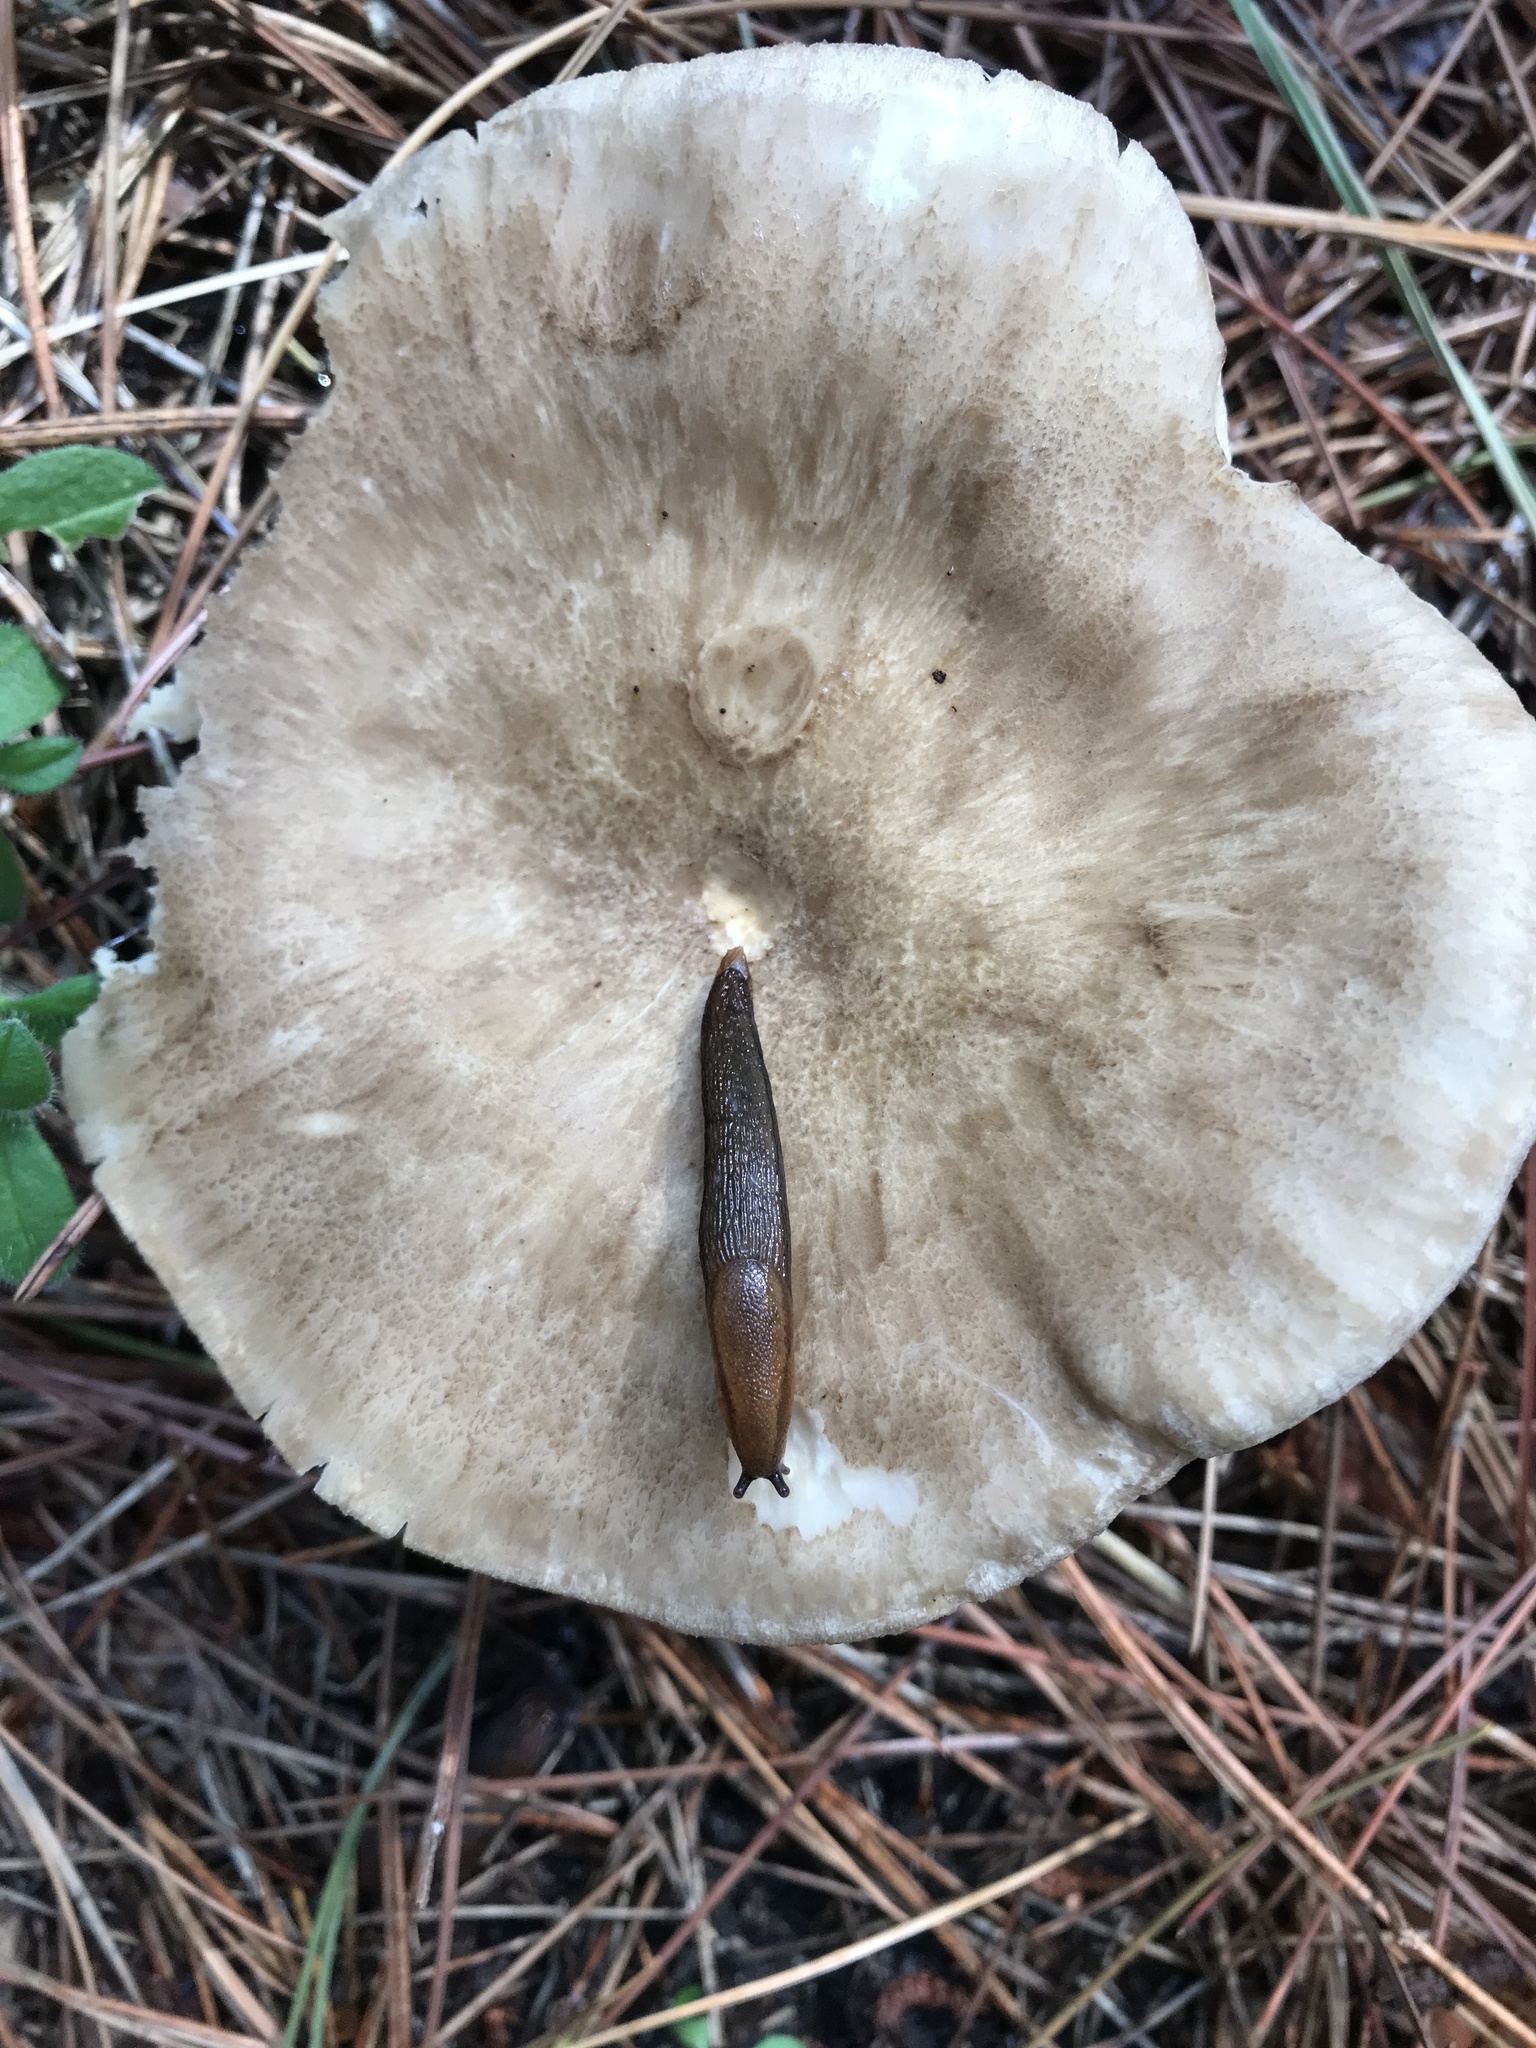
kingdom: Animalia
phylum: Mollusca
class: Gastropoda
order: Stylommatophora
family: Arionidae
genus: Arion
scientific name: Arion subfuscus
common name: Dusky arion
